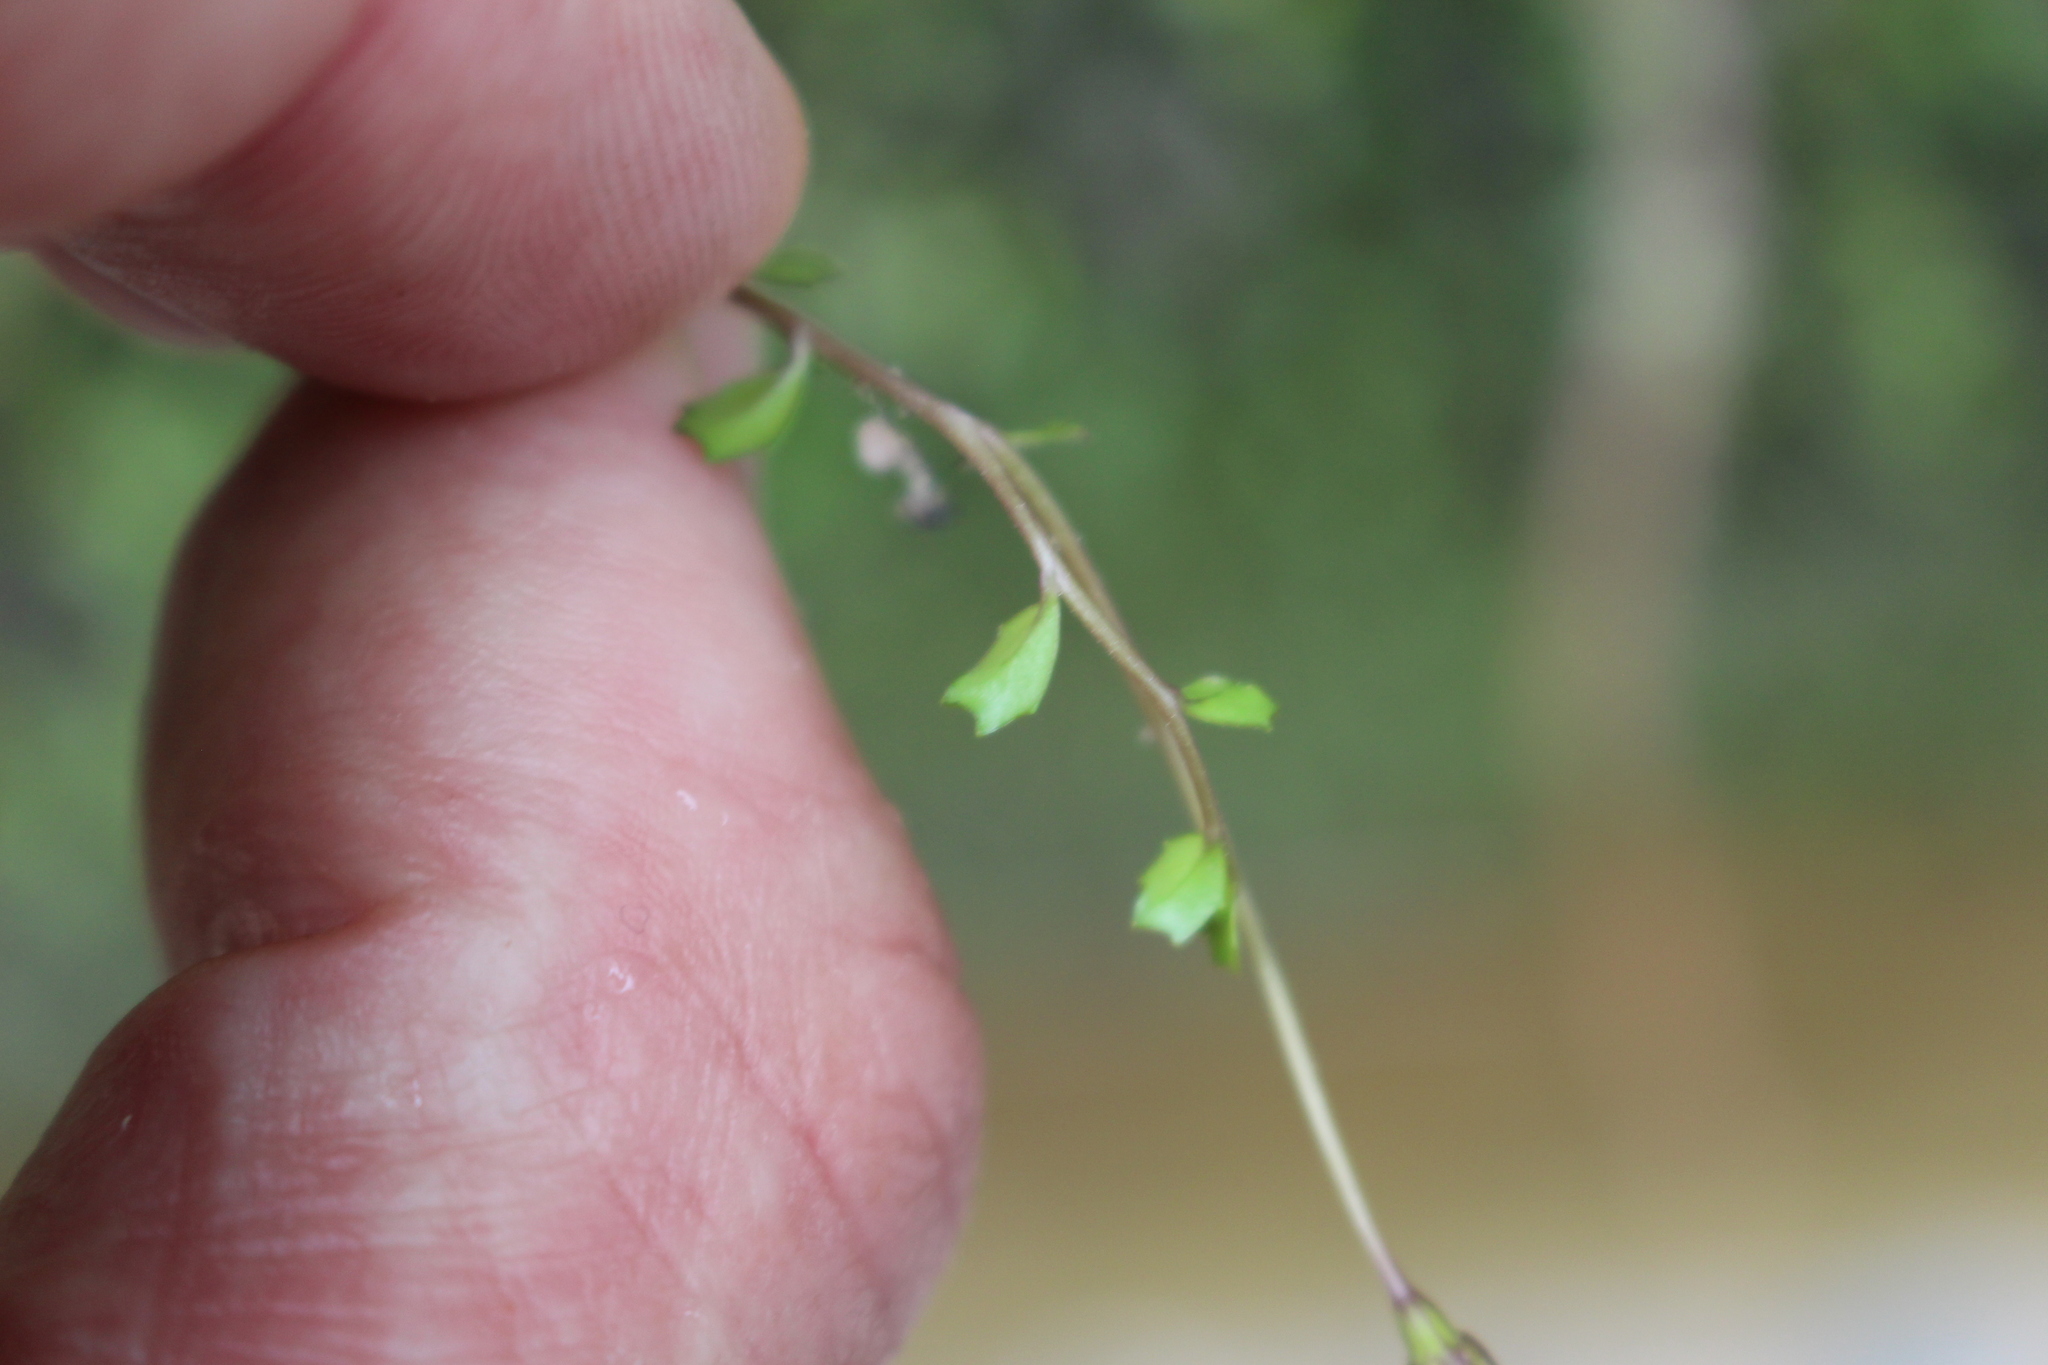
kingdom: Plantae
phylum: Tracheophyta
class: Magnoliopsida
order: Asterales
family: Campanulaceae
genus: Lobelia
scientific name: Lobelia angulata
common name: Lawn lobelia
